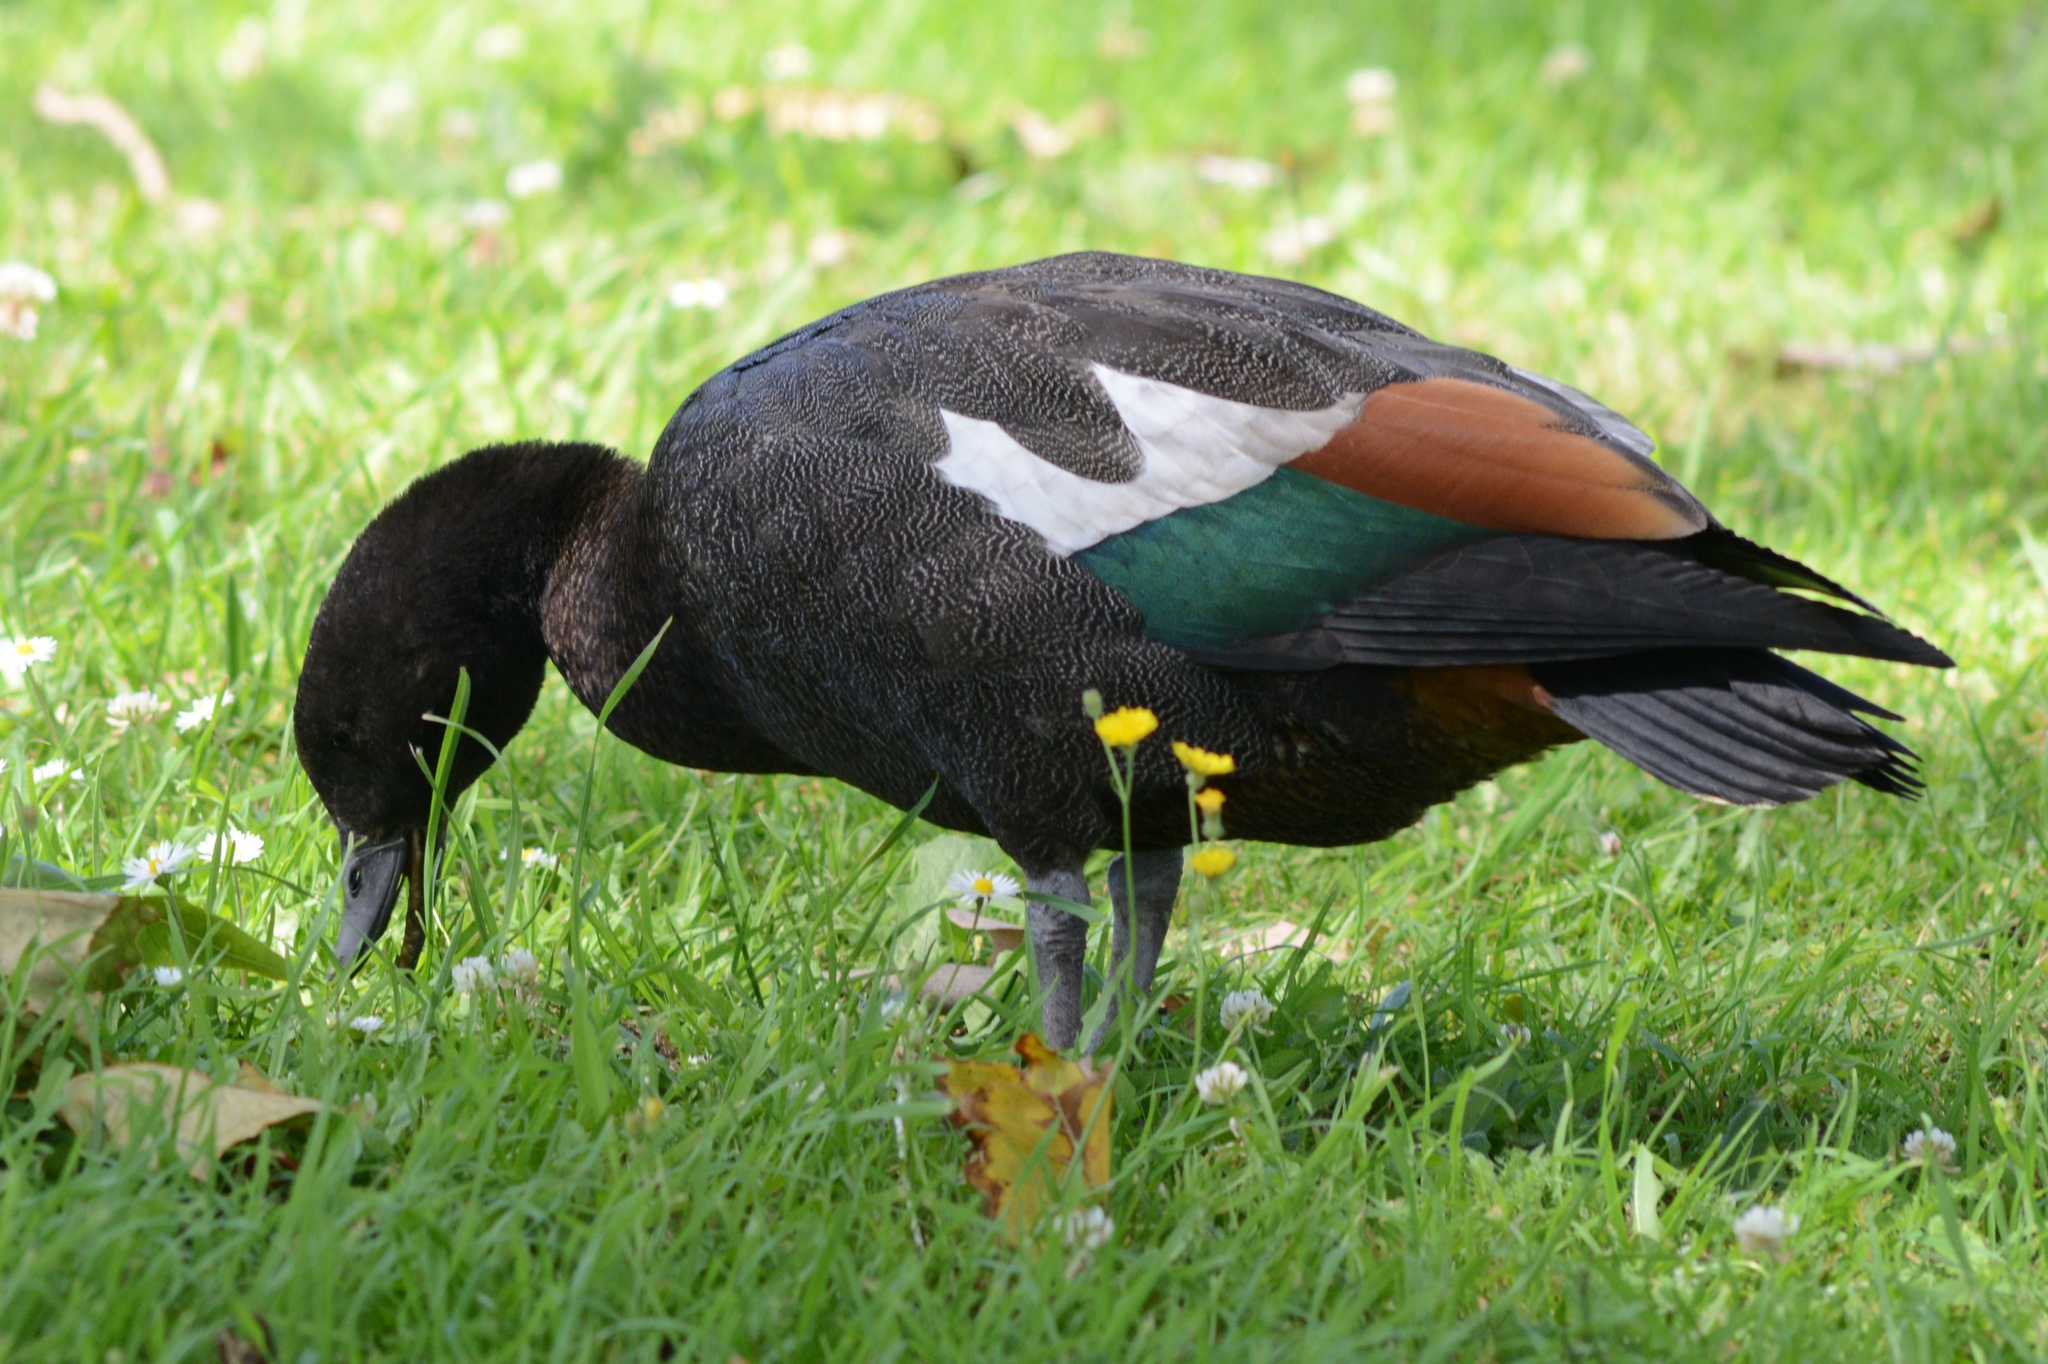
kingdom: Animalia
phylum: Chordata
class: Aves
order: Anseriformes
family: Anatidae
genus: Tadorna
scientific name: Tadorna variegata
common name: Paradise shelduck
